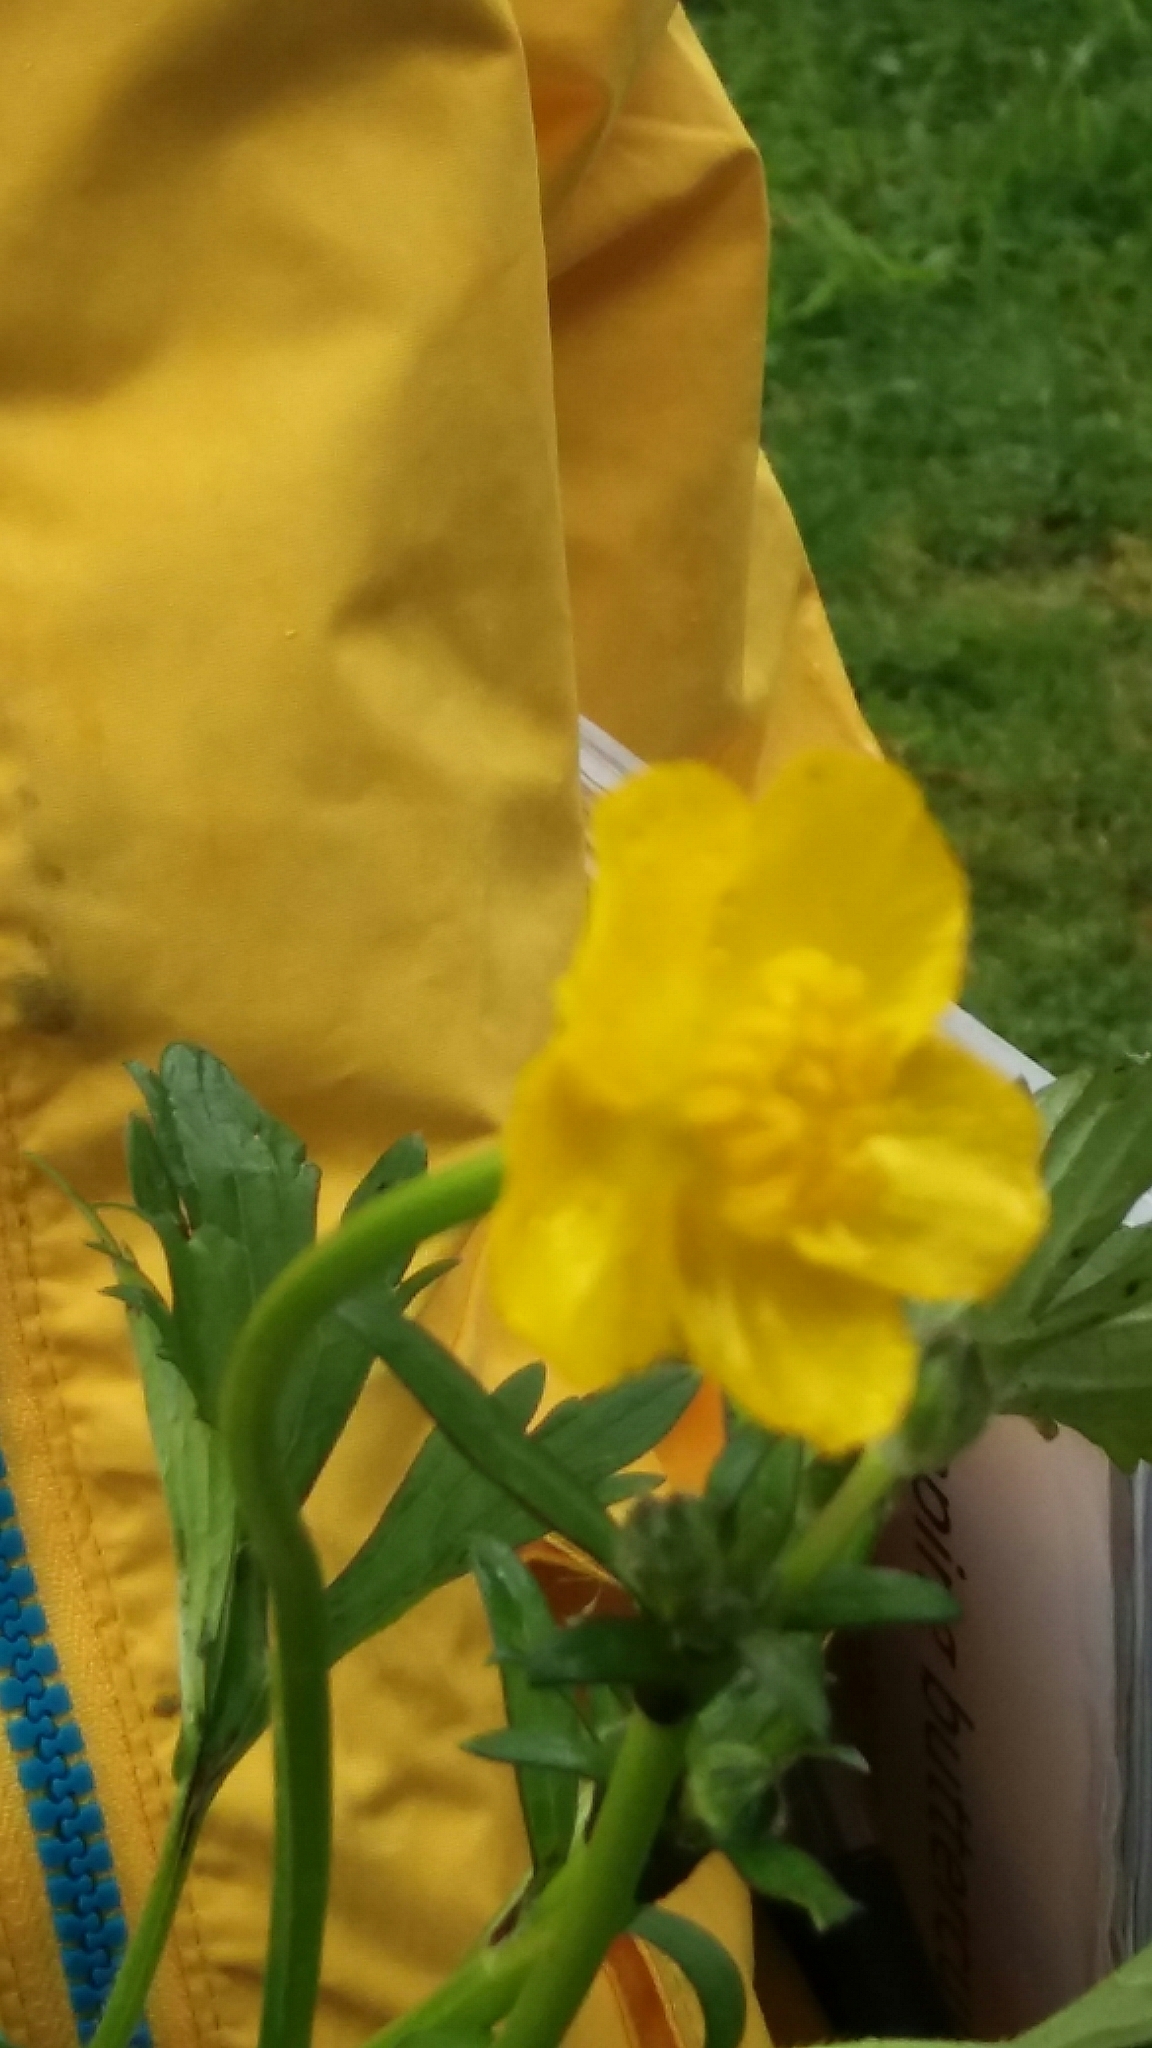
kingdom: Plantae
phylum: Tracheophyta
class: Magnoliopsida
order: Ranunculales
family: Ranunculaceae
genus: Ranunculus
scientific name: Ranunculus repens
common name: Creeping buttercup
